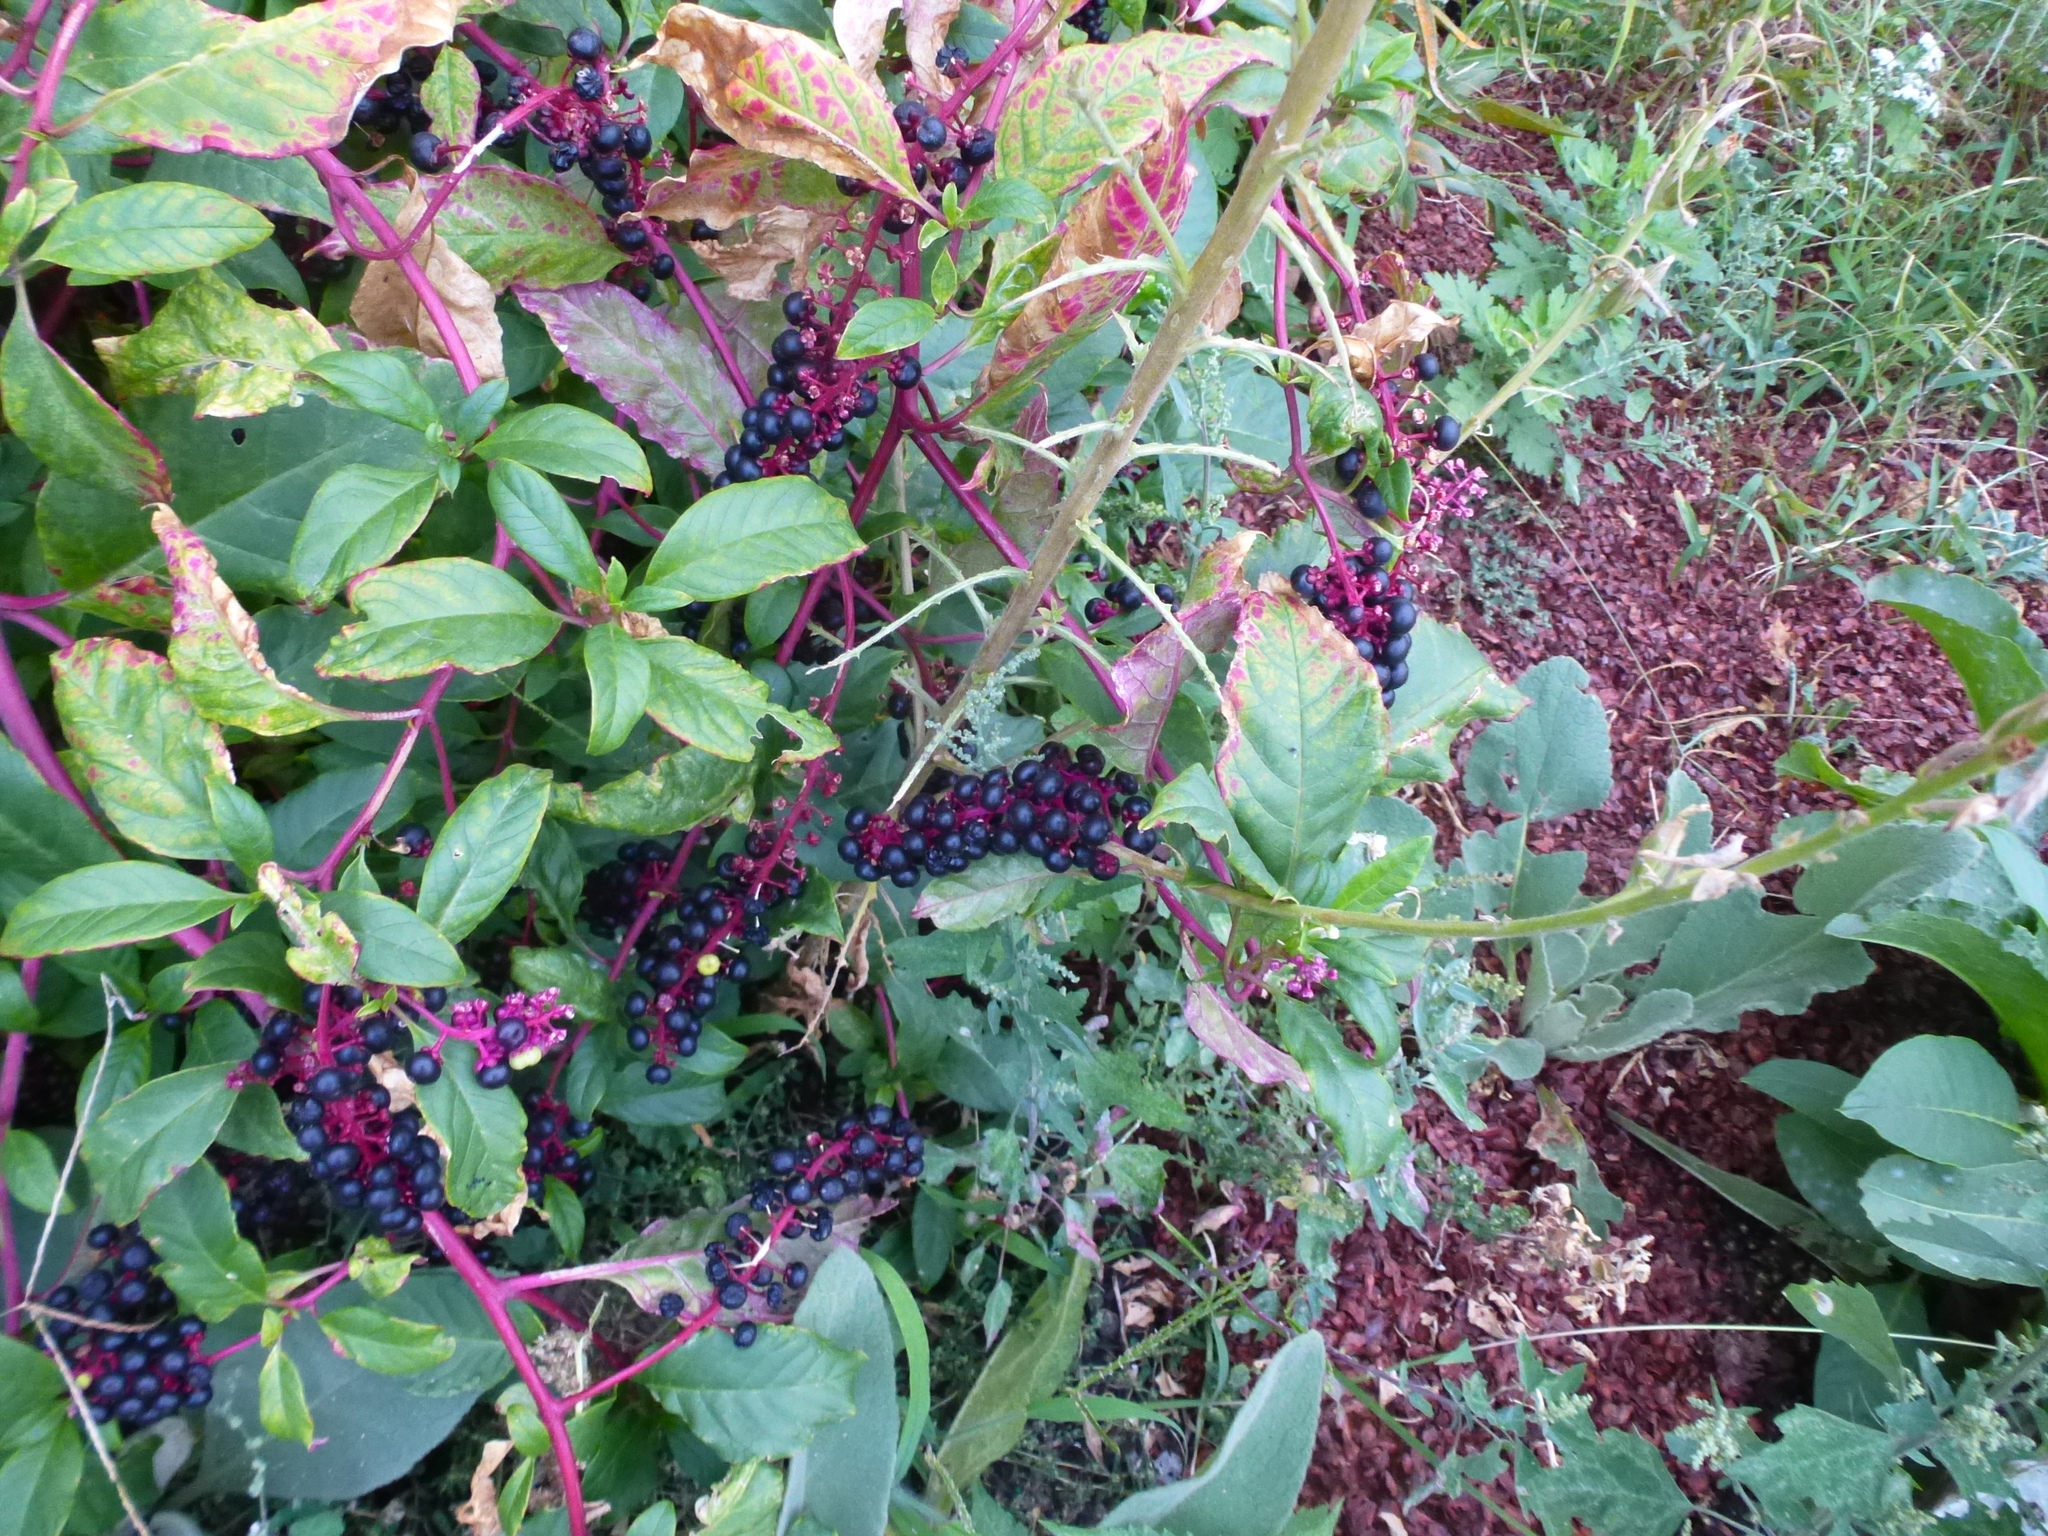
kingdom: Plantae
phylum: Tracheophyta
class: Magnoliopsida
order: Caryophyllales
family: Phytolaccaceae
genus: Phytolacca
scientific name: Phytolacca americana
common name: American pokeweed
